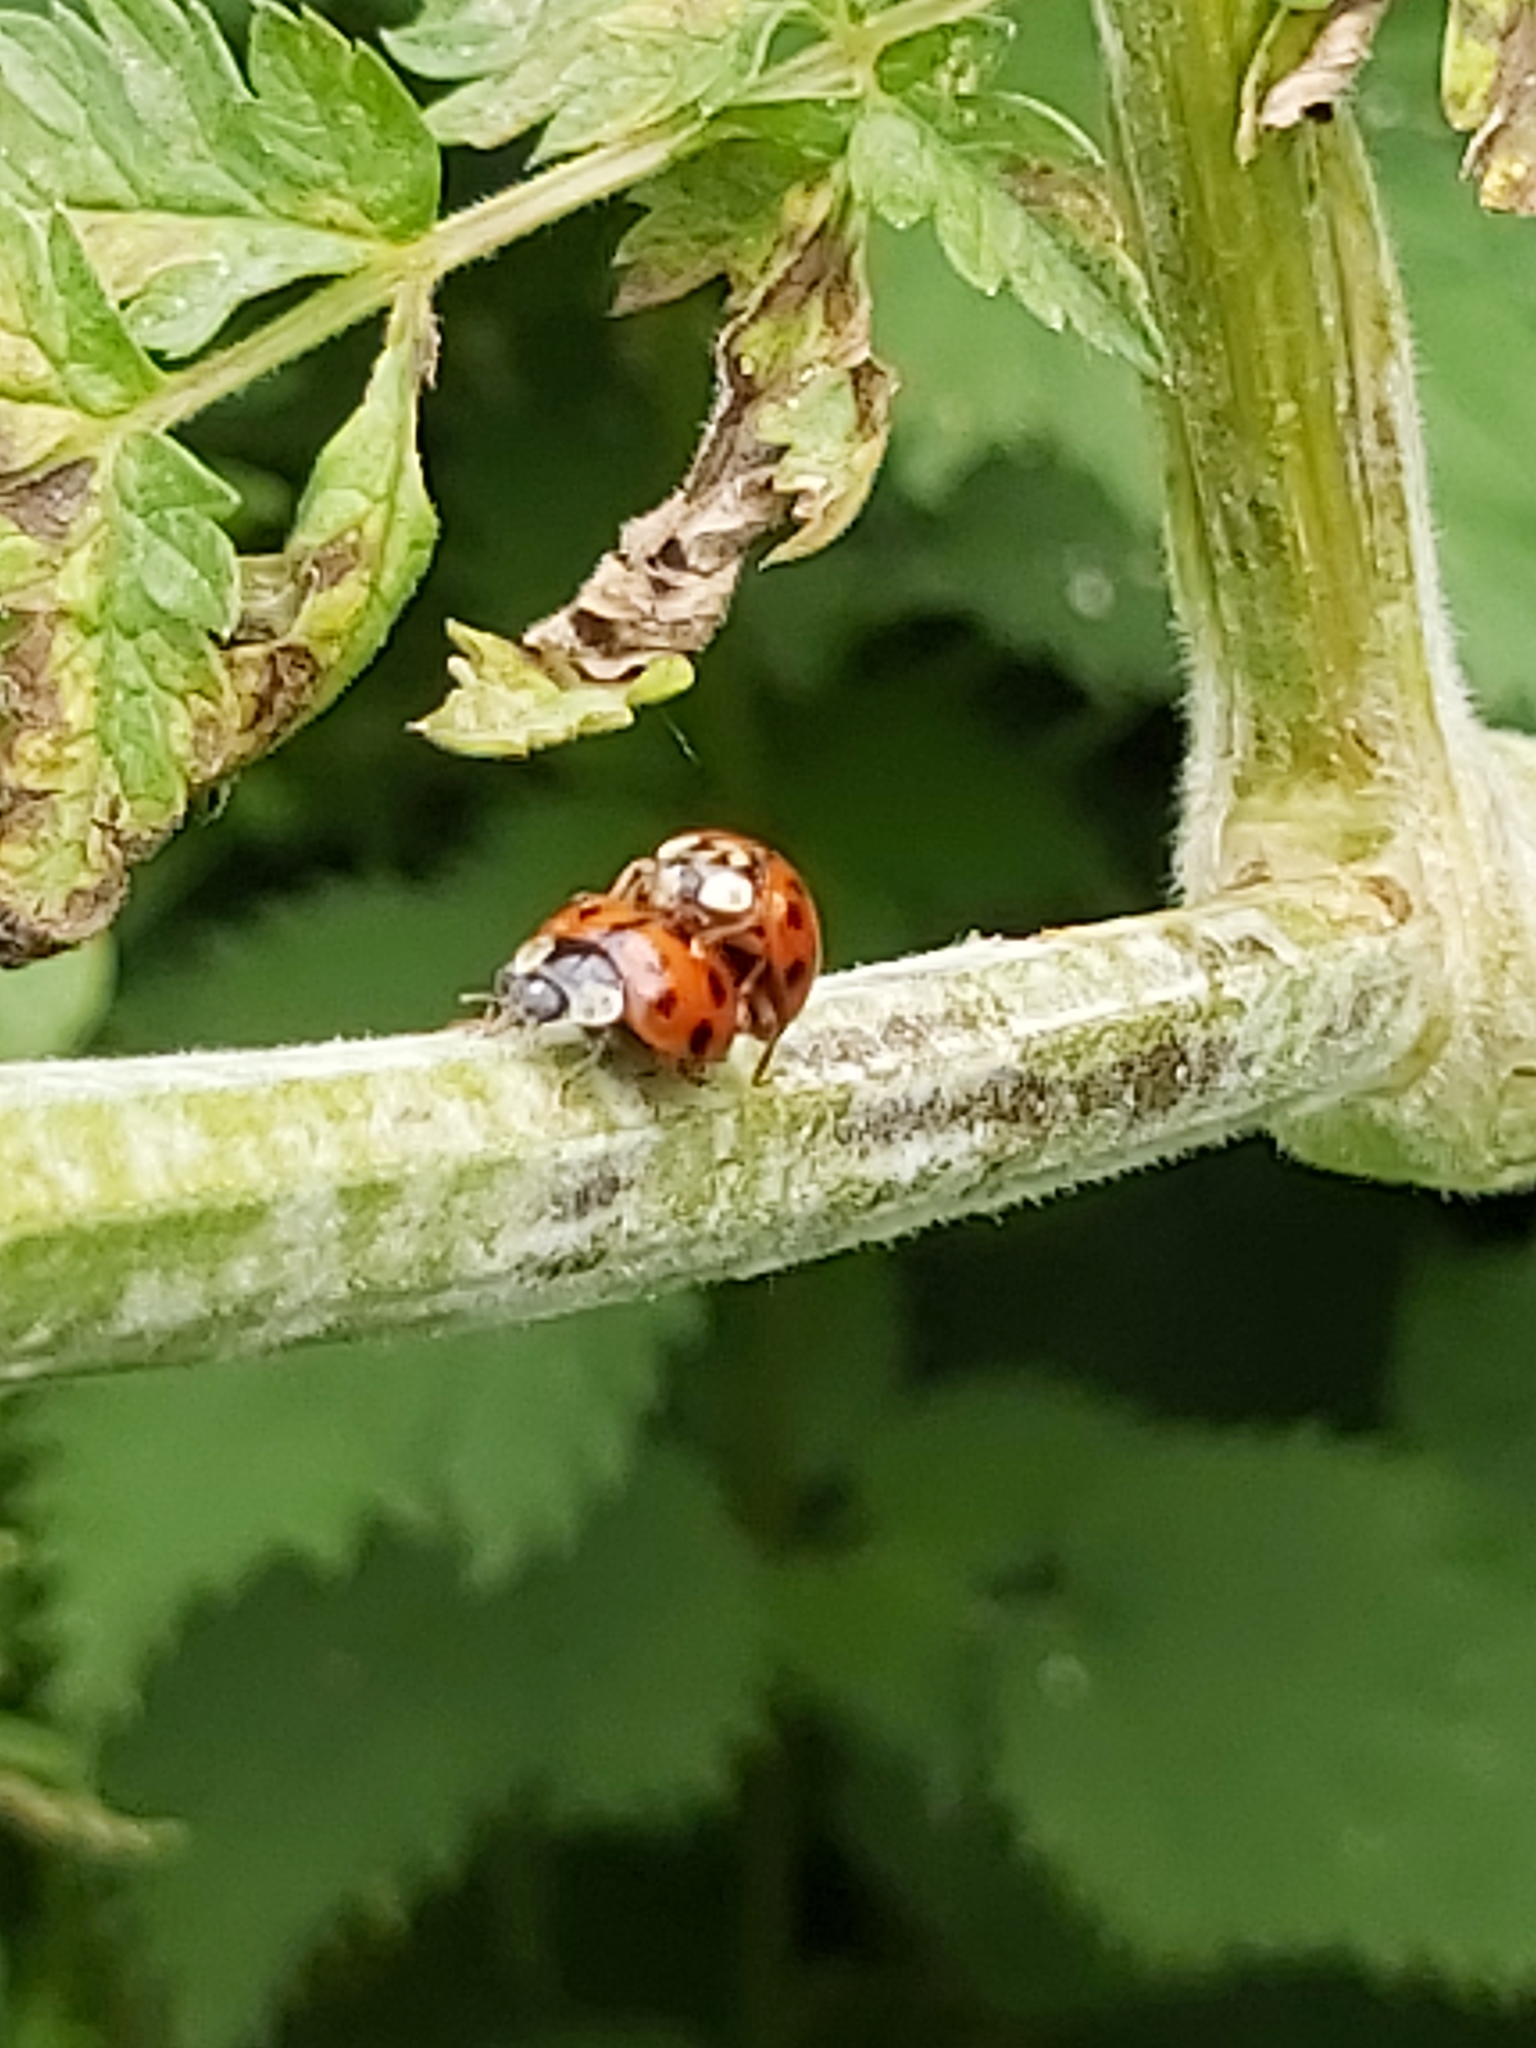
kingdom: Animalia
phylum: Arthropoda
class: Insecta
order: Coleoptera
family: Coccinellidae
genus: Harmonia
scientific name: Harmonia axyridis
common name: Harlequin ladybird
